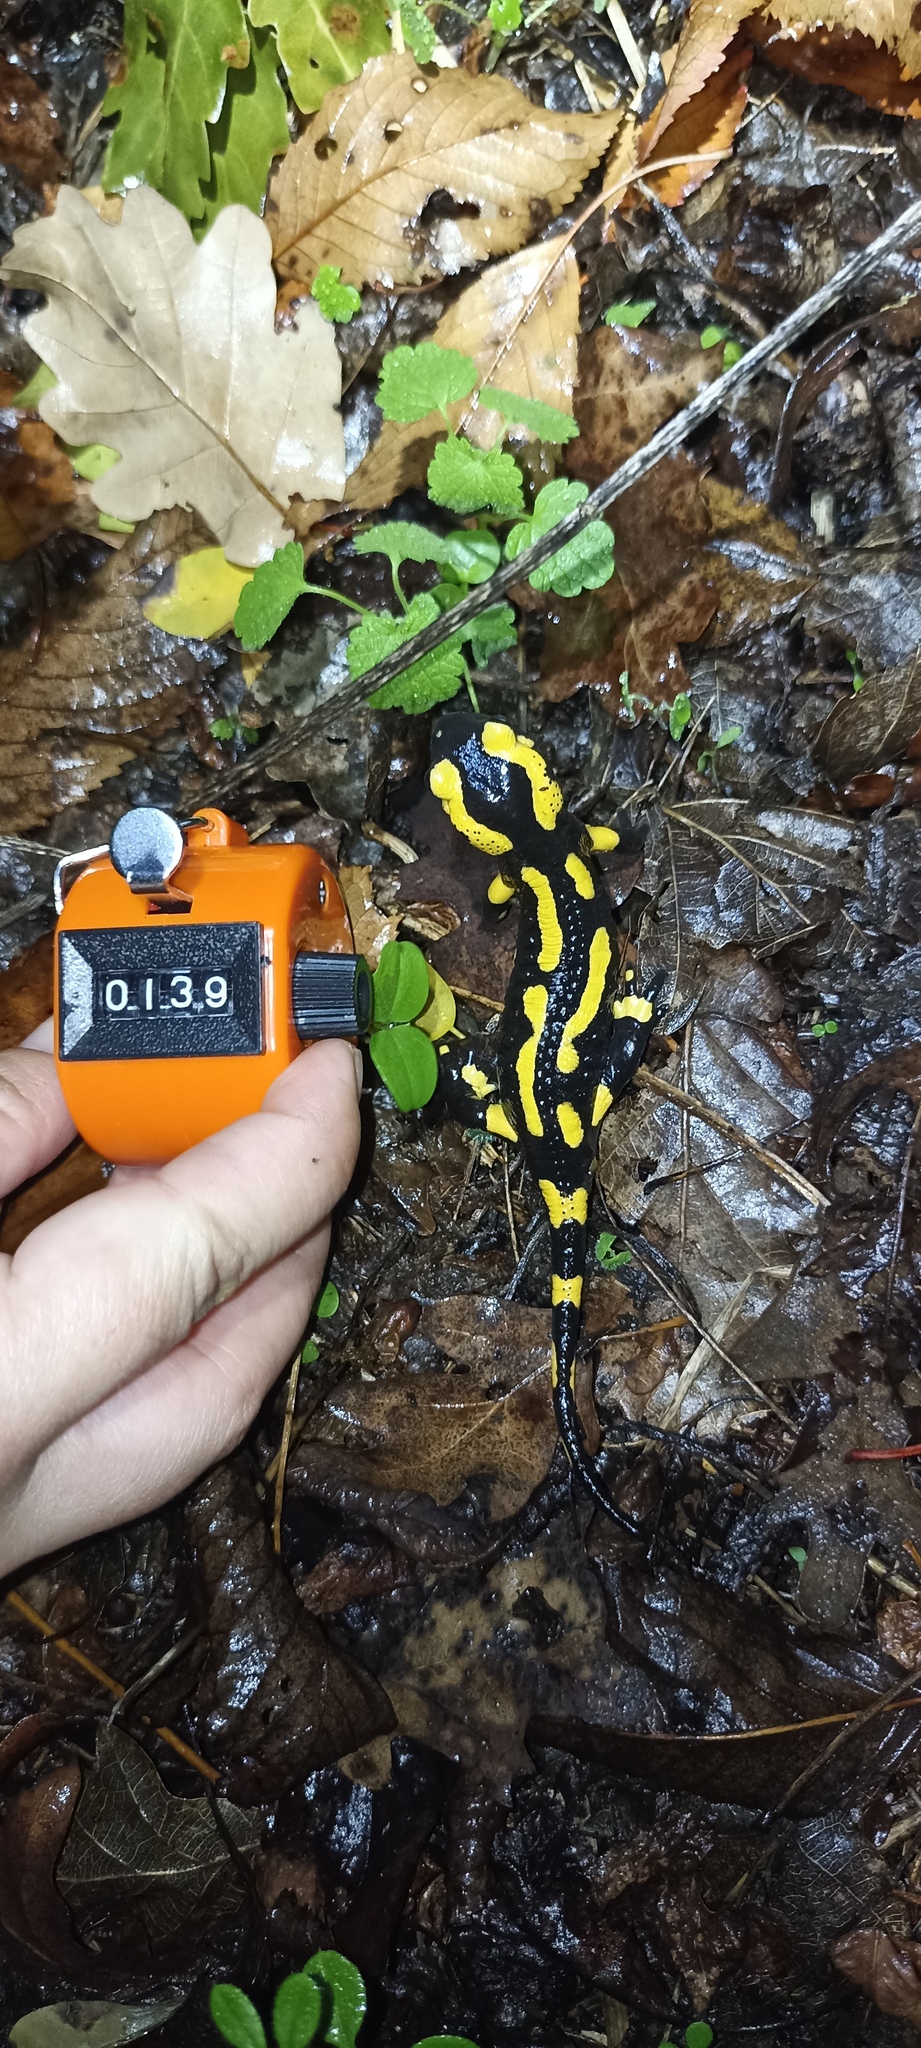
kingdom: Animalia
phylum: Chordata
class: Amphibia
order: Caudata
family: Salamandridae
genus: Salamandra
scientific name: Salamandra salamandra
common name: Fire salamander
